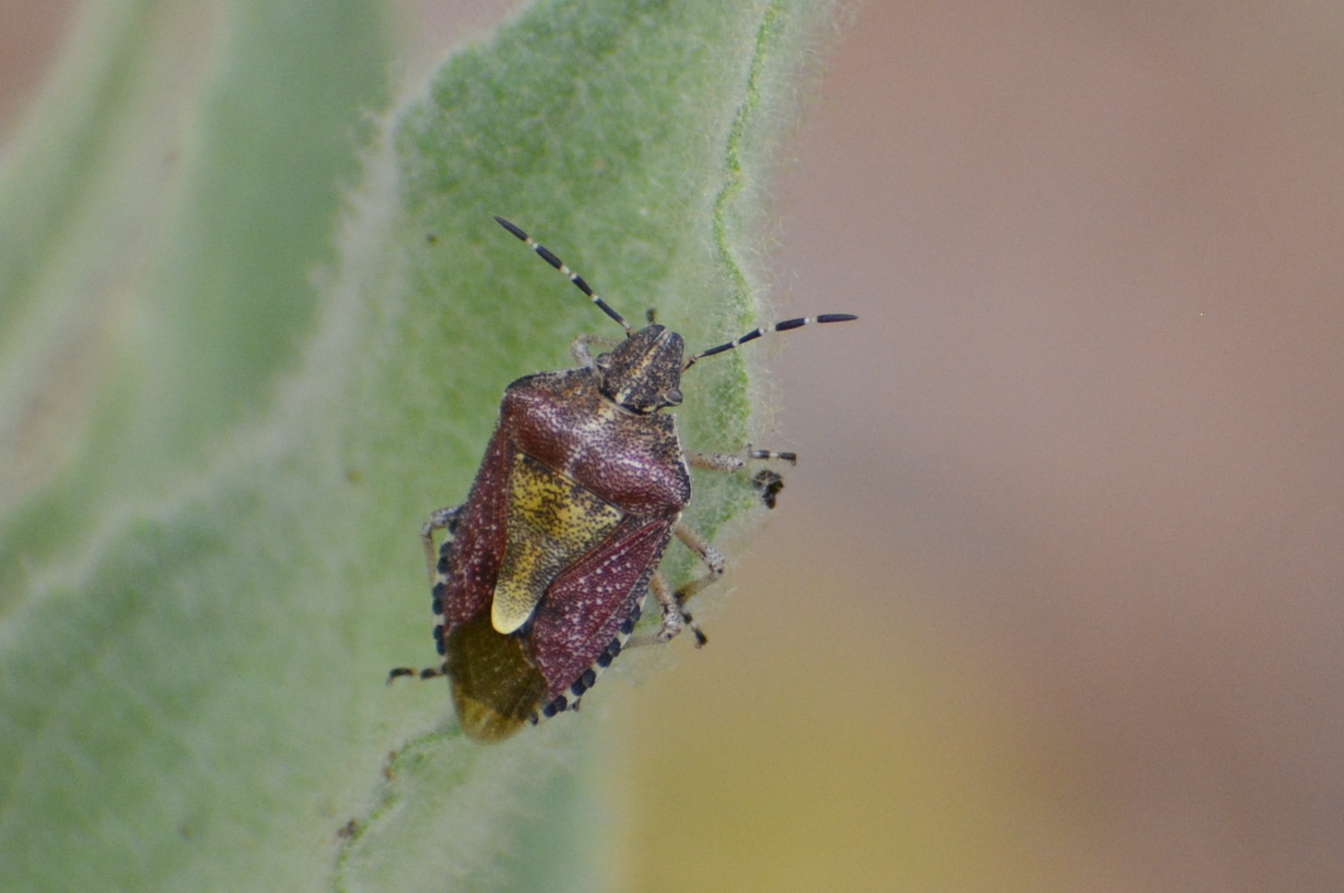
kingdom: Animalia
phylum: Arthropoda
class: Insecta
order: Hemiptera
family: Pentatomidae
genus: Dolycoris
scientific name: Dolycoris baccarum
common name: Sloe bug
